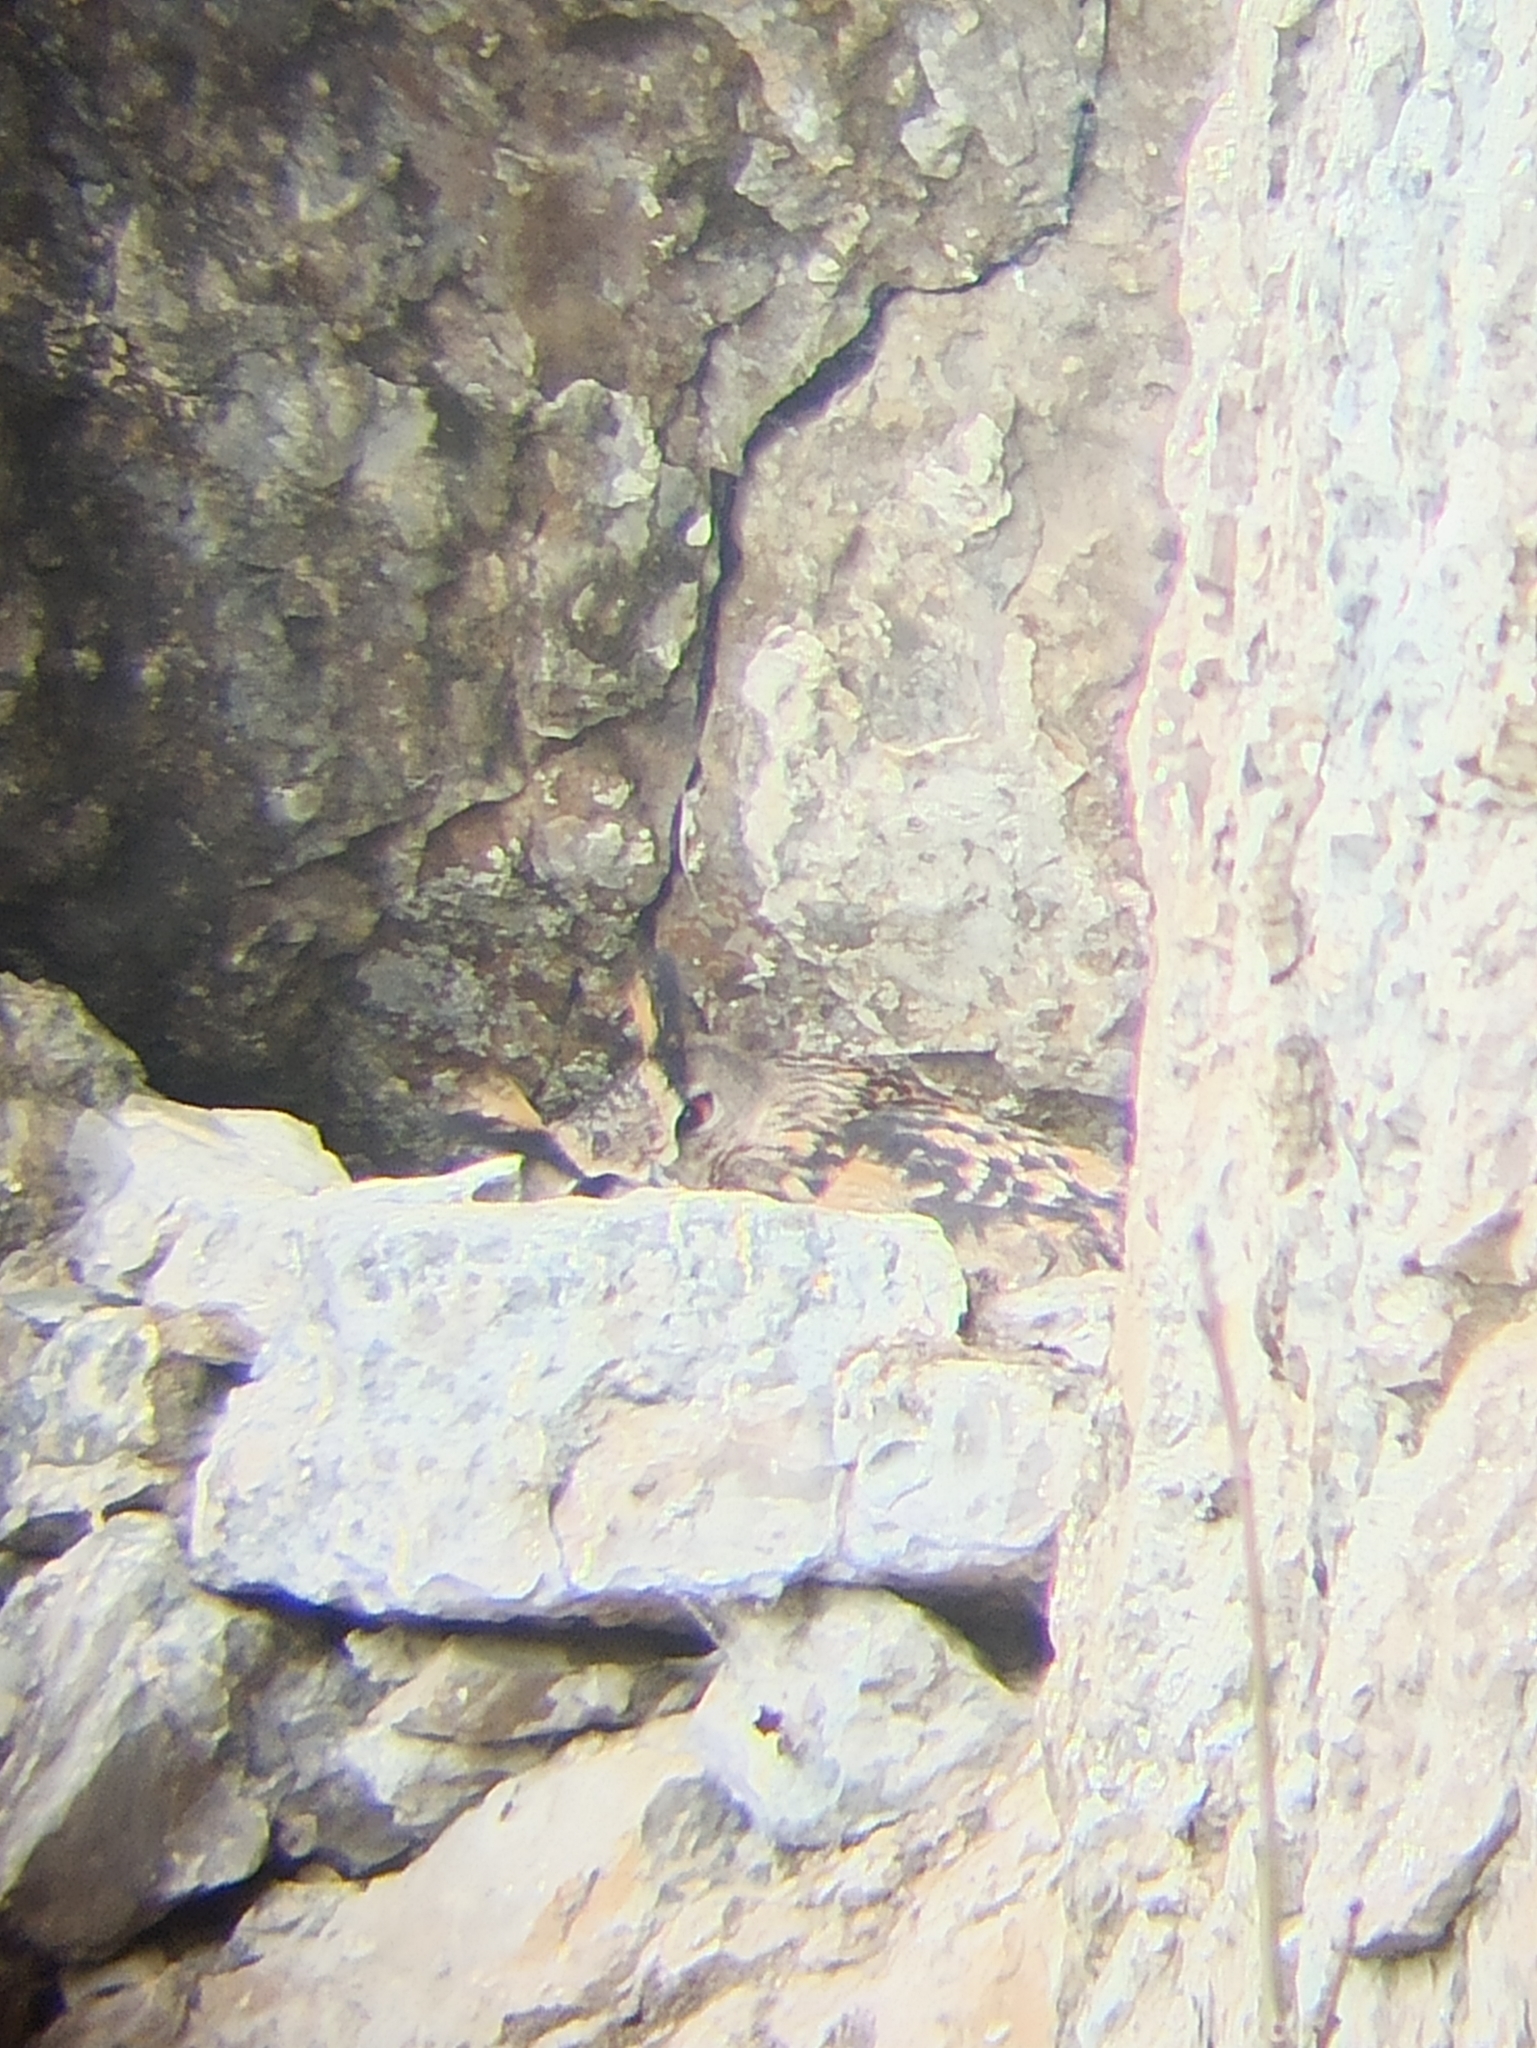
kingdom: Animalia
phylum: Chordata
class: Aves
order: Strigiformes
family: Strigidae
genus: Bubo
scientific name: Bubo bubo
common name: Eurasian eagle-owl
